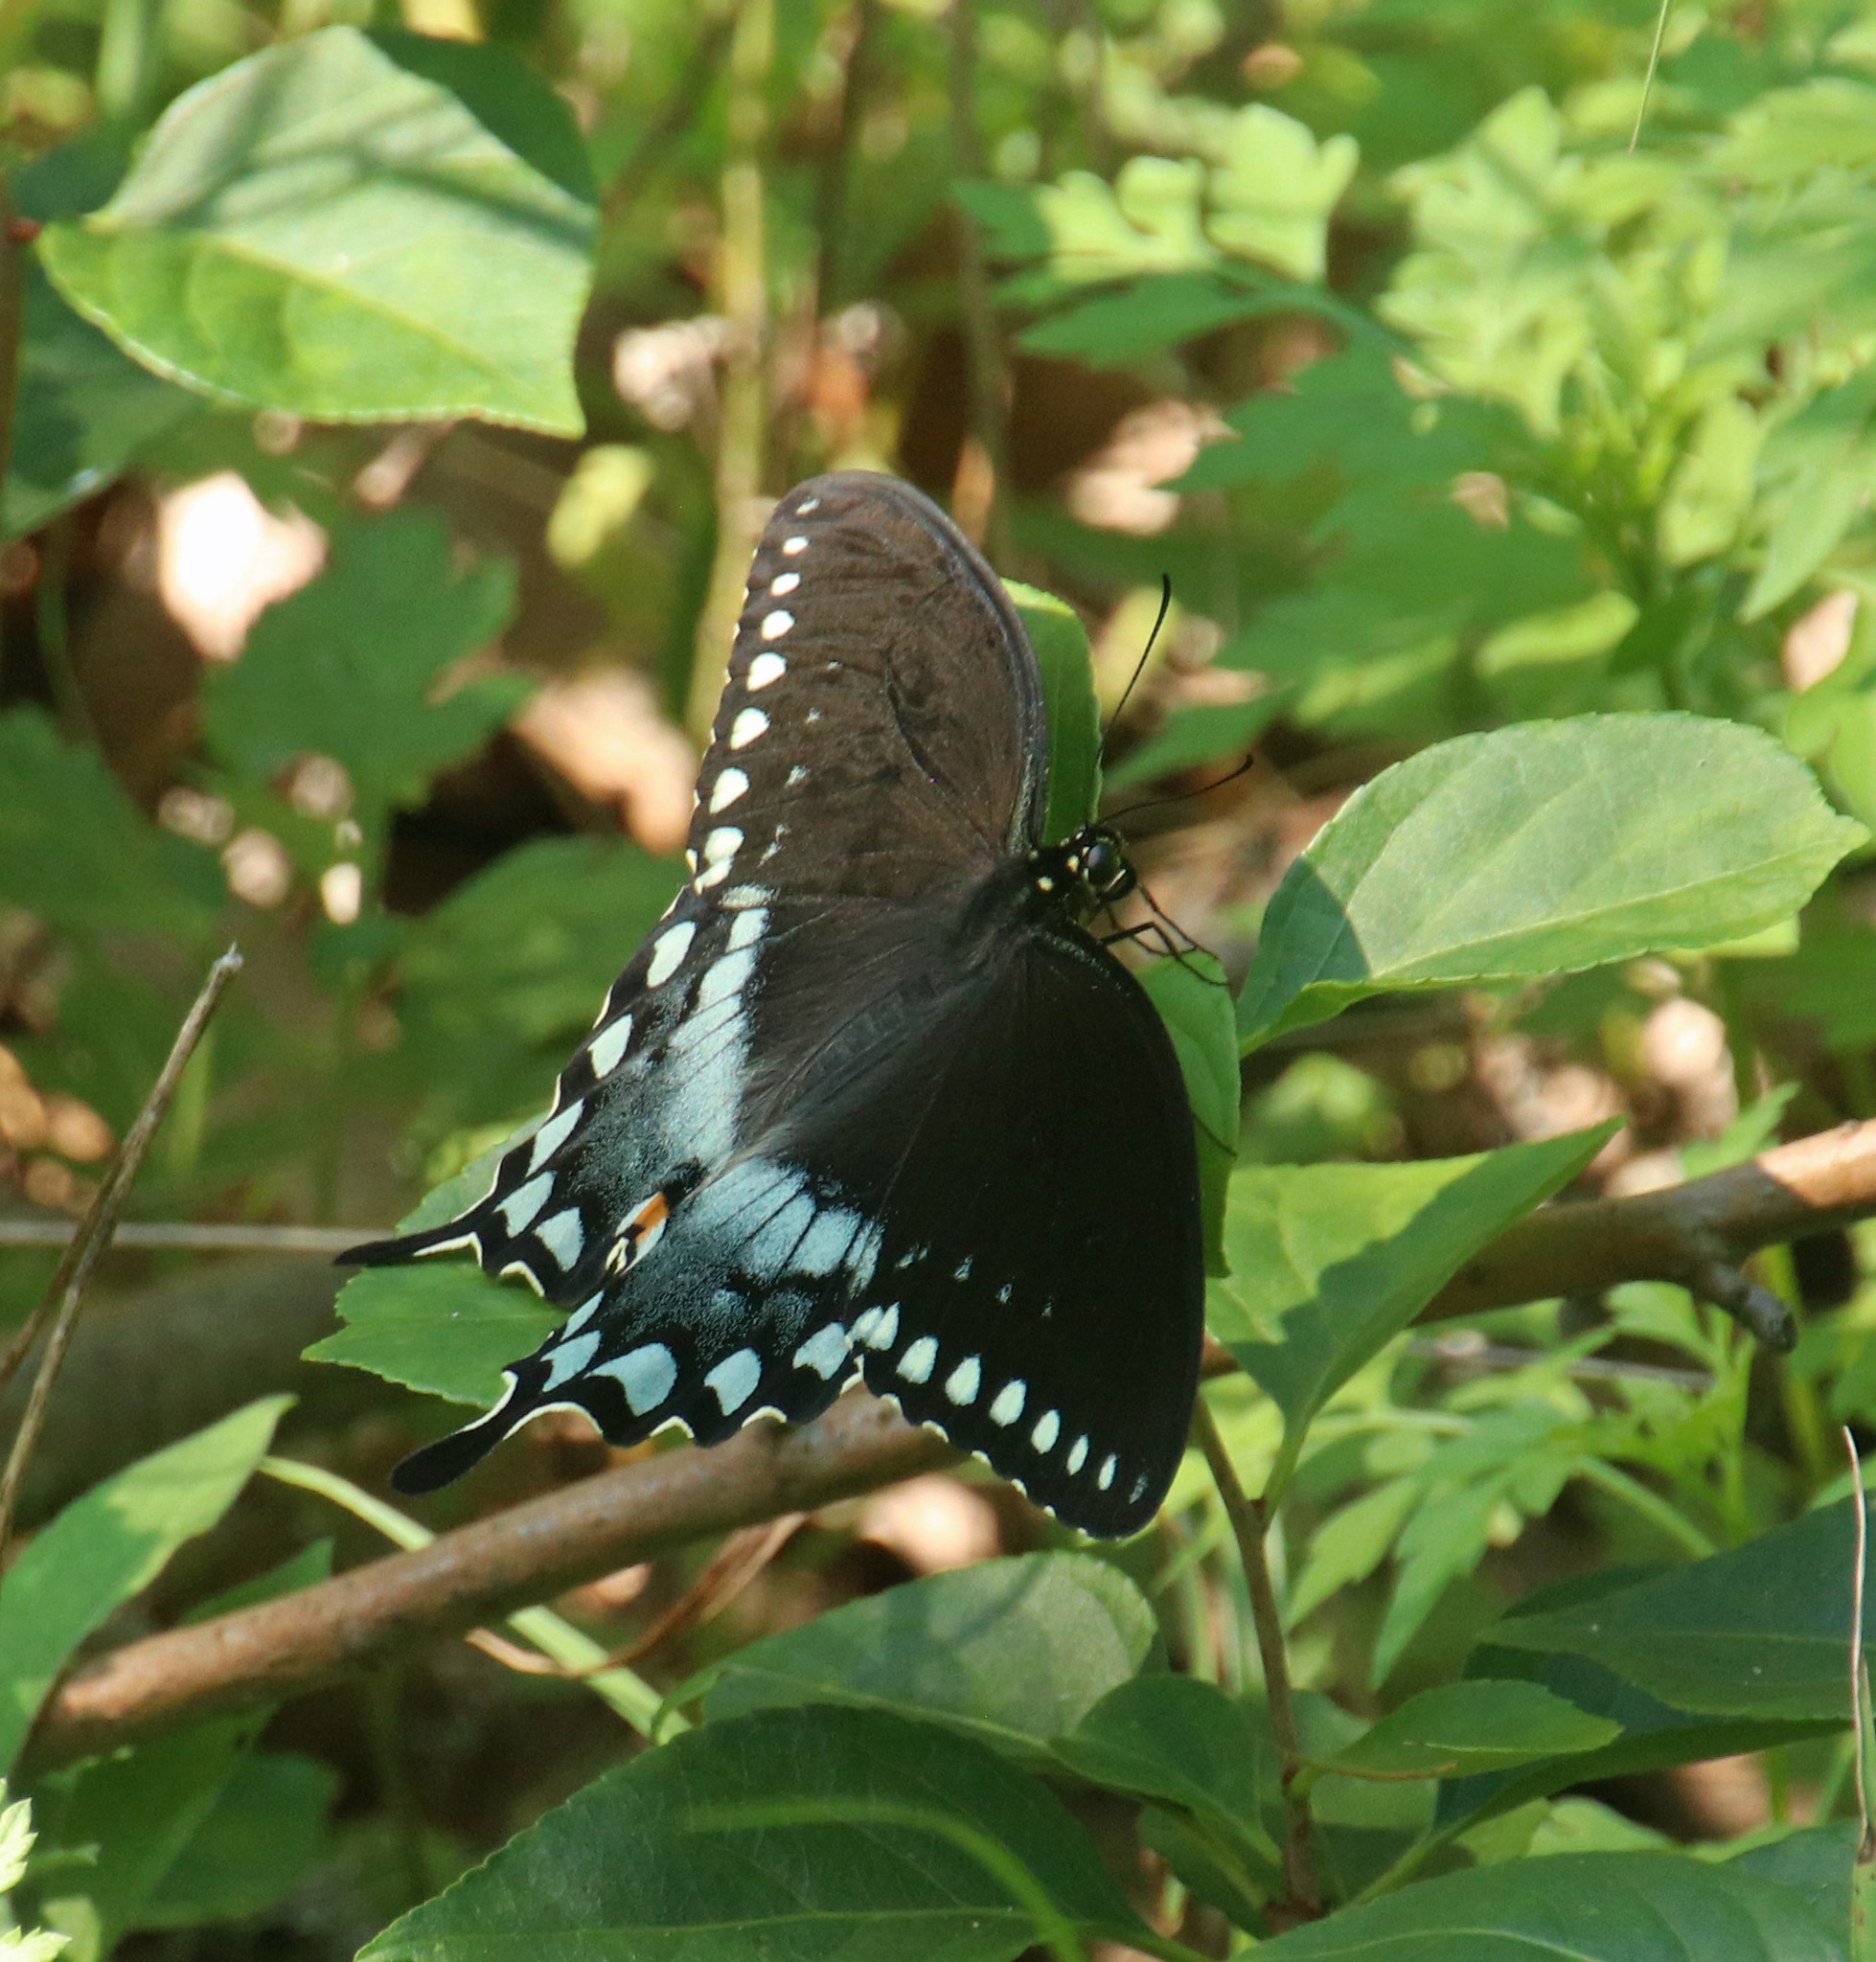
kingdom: Animalia
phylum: Arthropoda
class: Insecta
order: Lepidoptera
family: Papilionidae
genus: Papilio
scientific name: Papilio troilus
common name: Spicebush swallowtail
